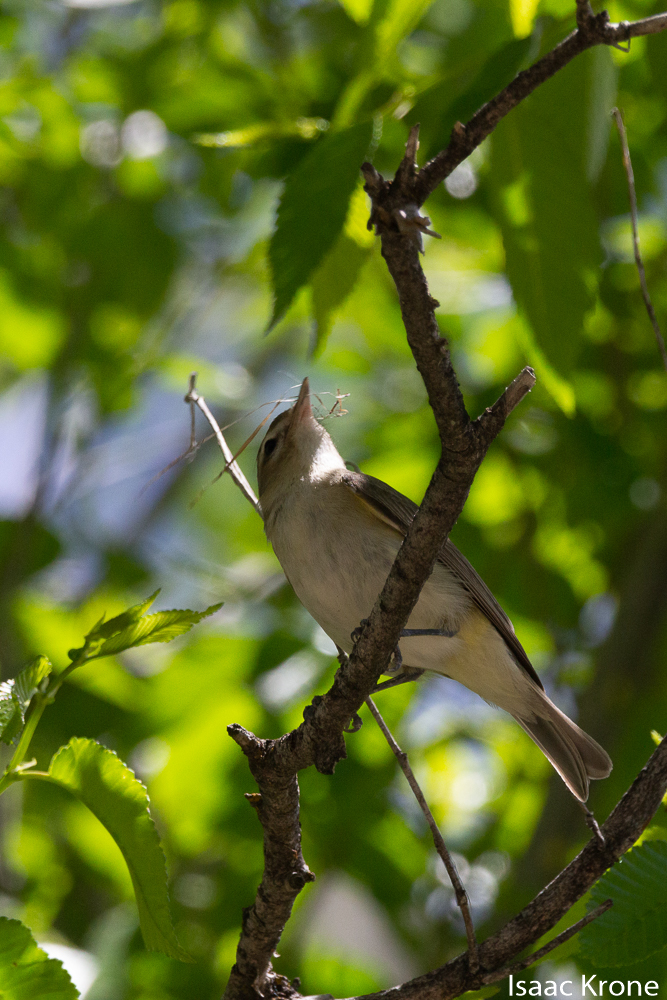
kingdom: Animalia
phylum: Chordata
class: Aves
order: Passeriformes
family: Vireonidae
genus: Vireo
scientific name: Vireo gilvus
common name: Warbling vireo
